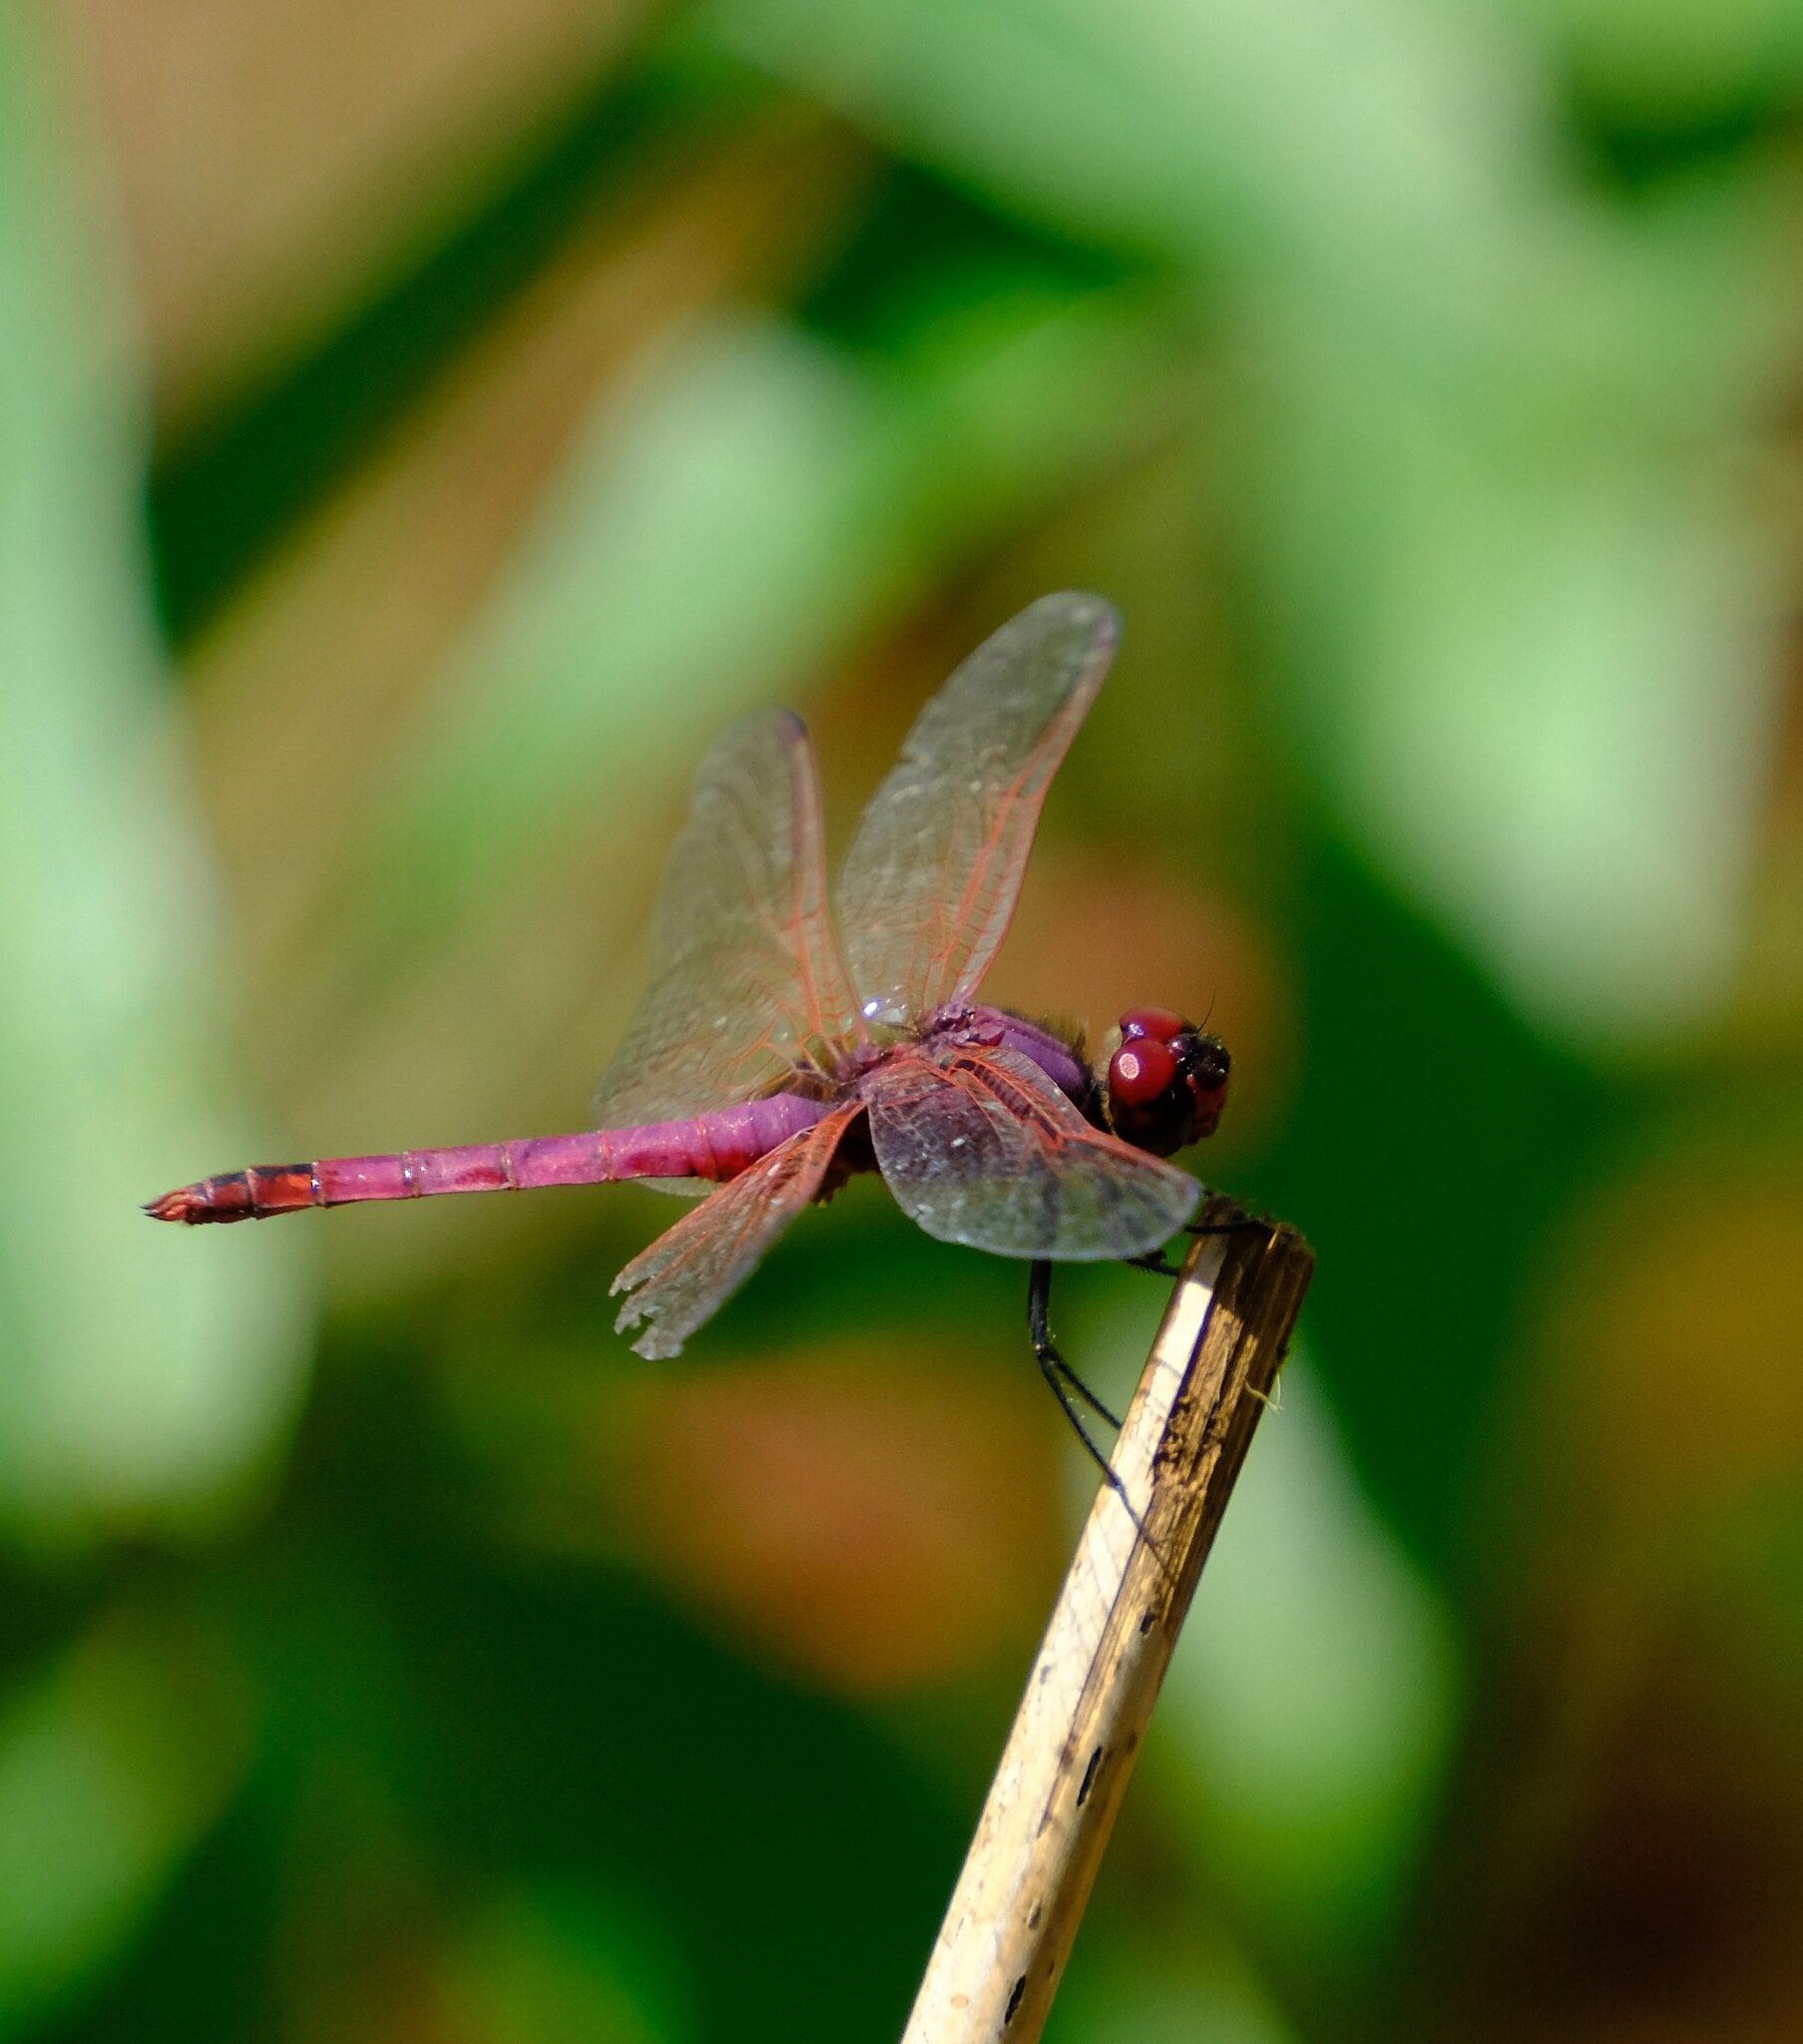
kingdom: Animalia
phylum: Arthropoda
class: Insecta
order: Odonata
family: Libellulidae
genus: Trithemis
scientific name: Trithemis annulata
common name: Violet dropwing
